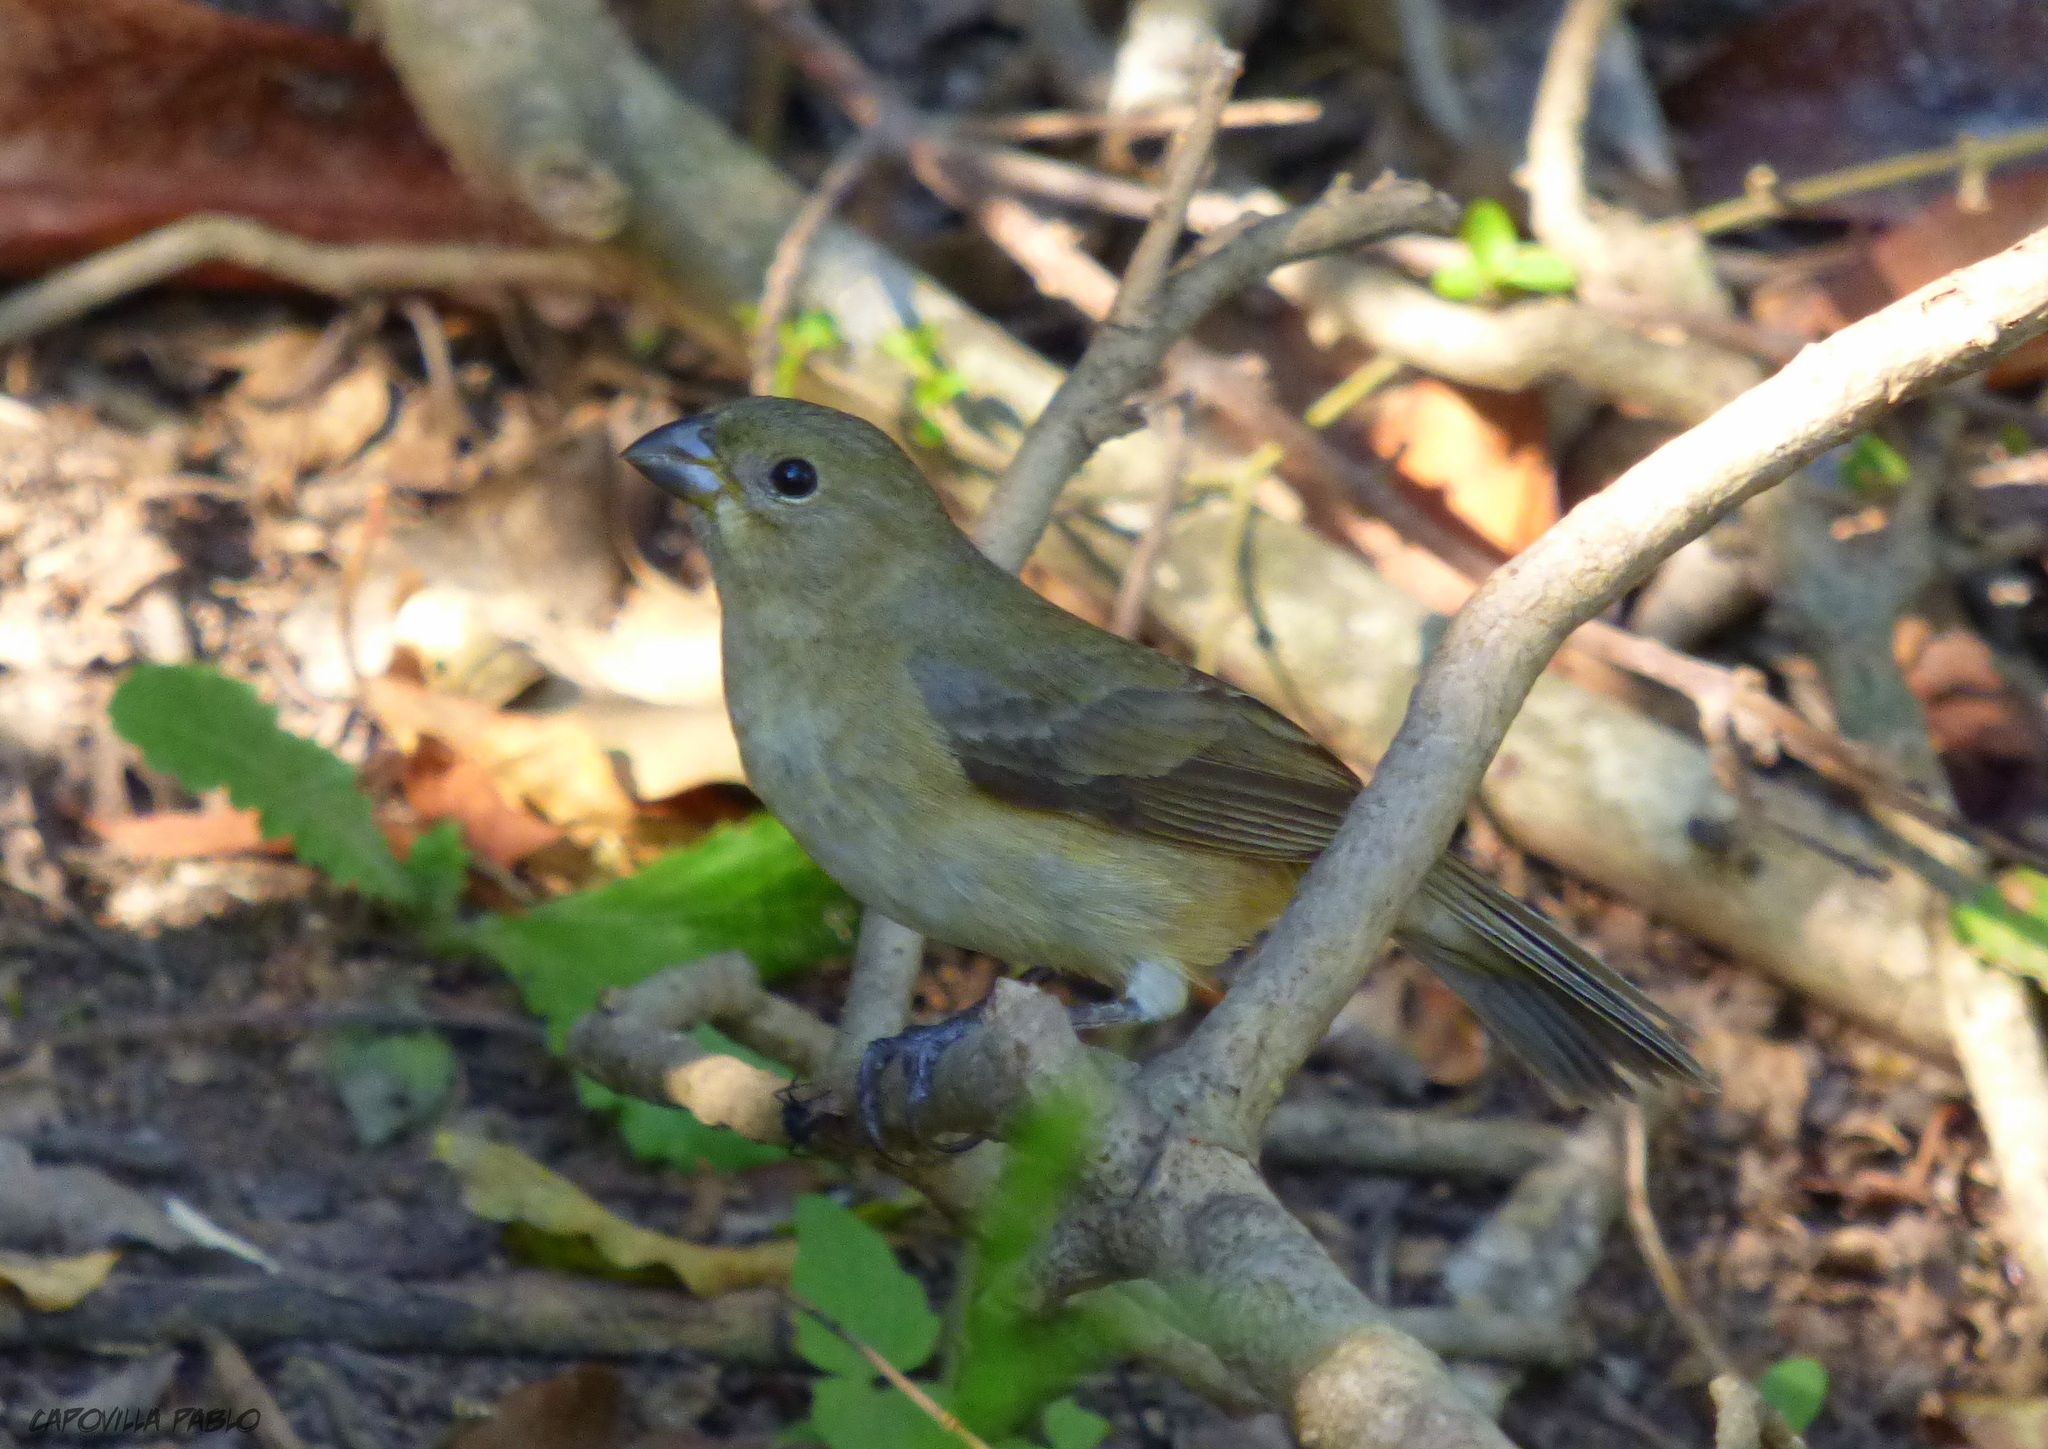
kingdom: Animalia
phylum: Chordata
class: Aves
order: Passeriformes
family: Thraupidae
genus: Sporophila
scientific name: Sporophila caerulescens
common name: Double-collared seedeater
